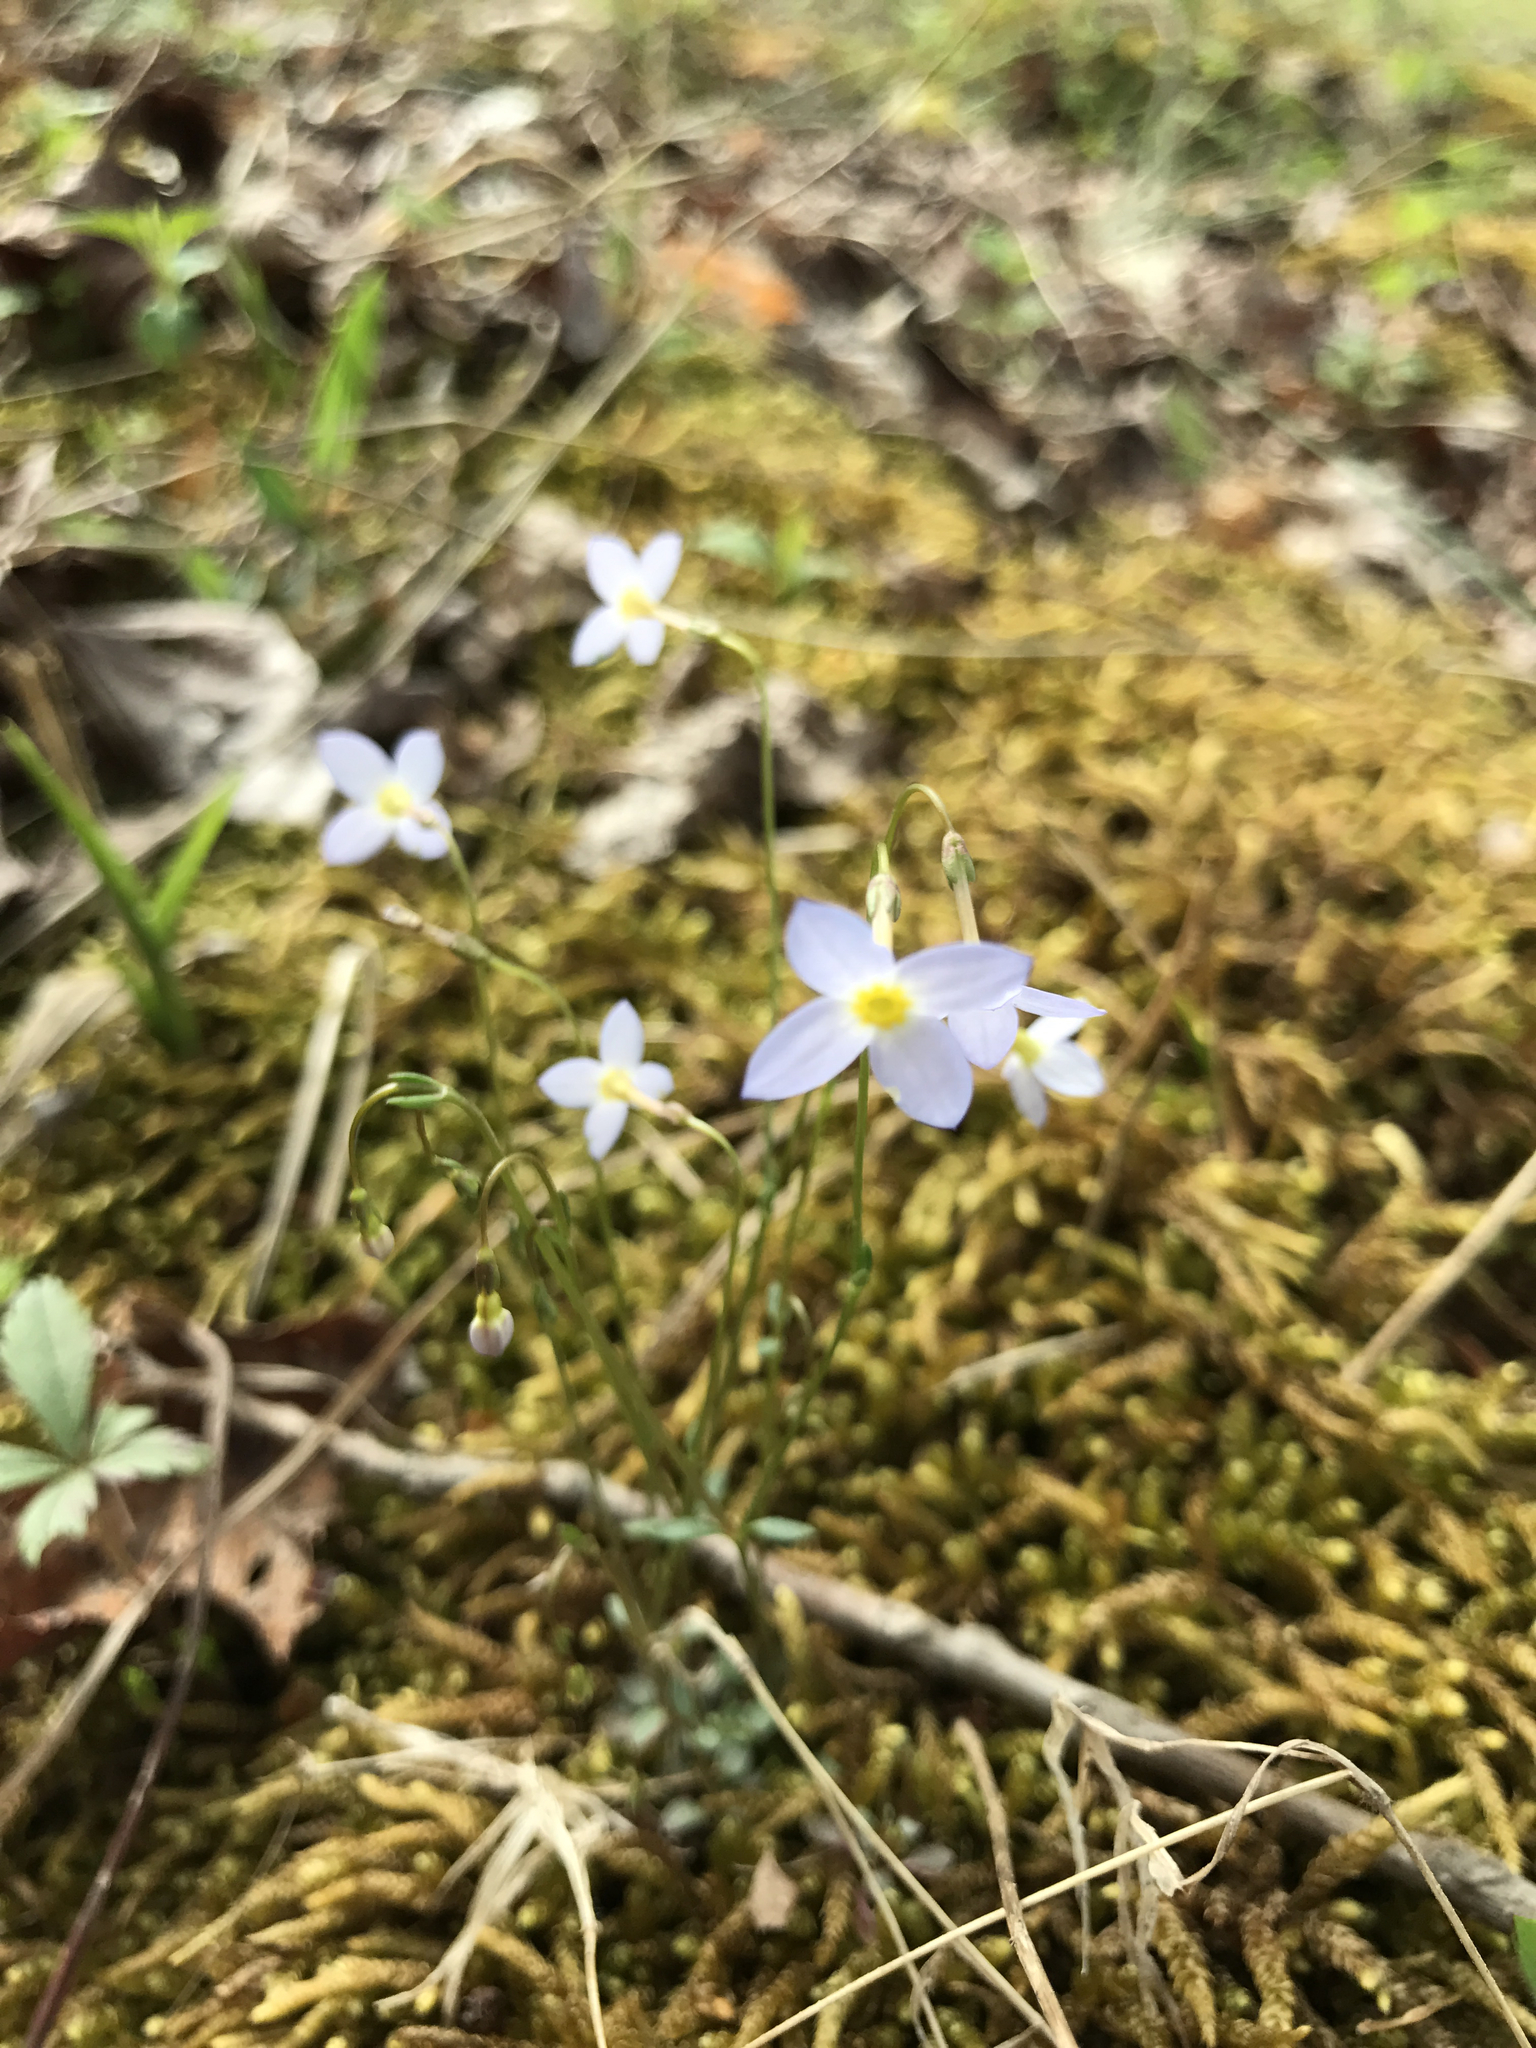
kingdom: Plantae
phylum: Tracheophyta
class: Magnoliopsida
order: Gentianales
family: Rubiaceae
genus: Houstonia
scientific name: Houstonia caerulea
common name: Bluets
